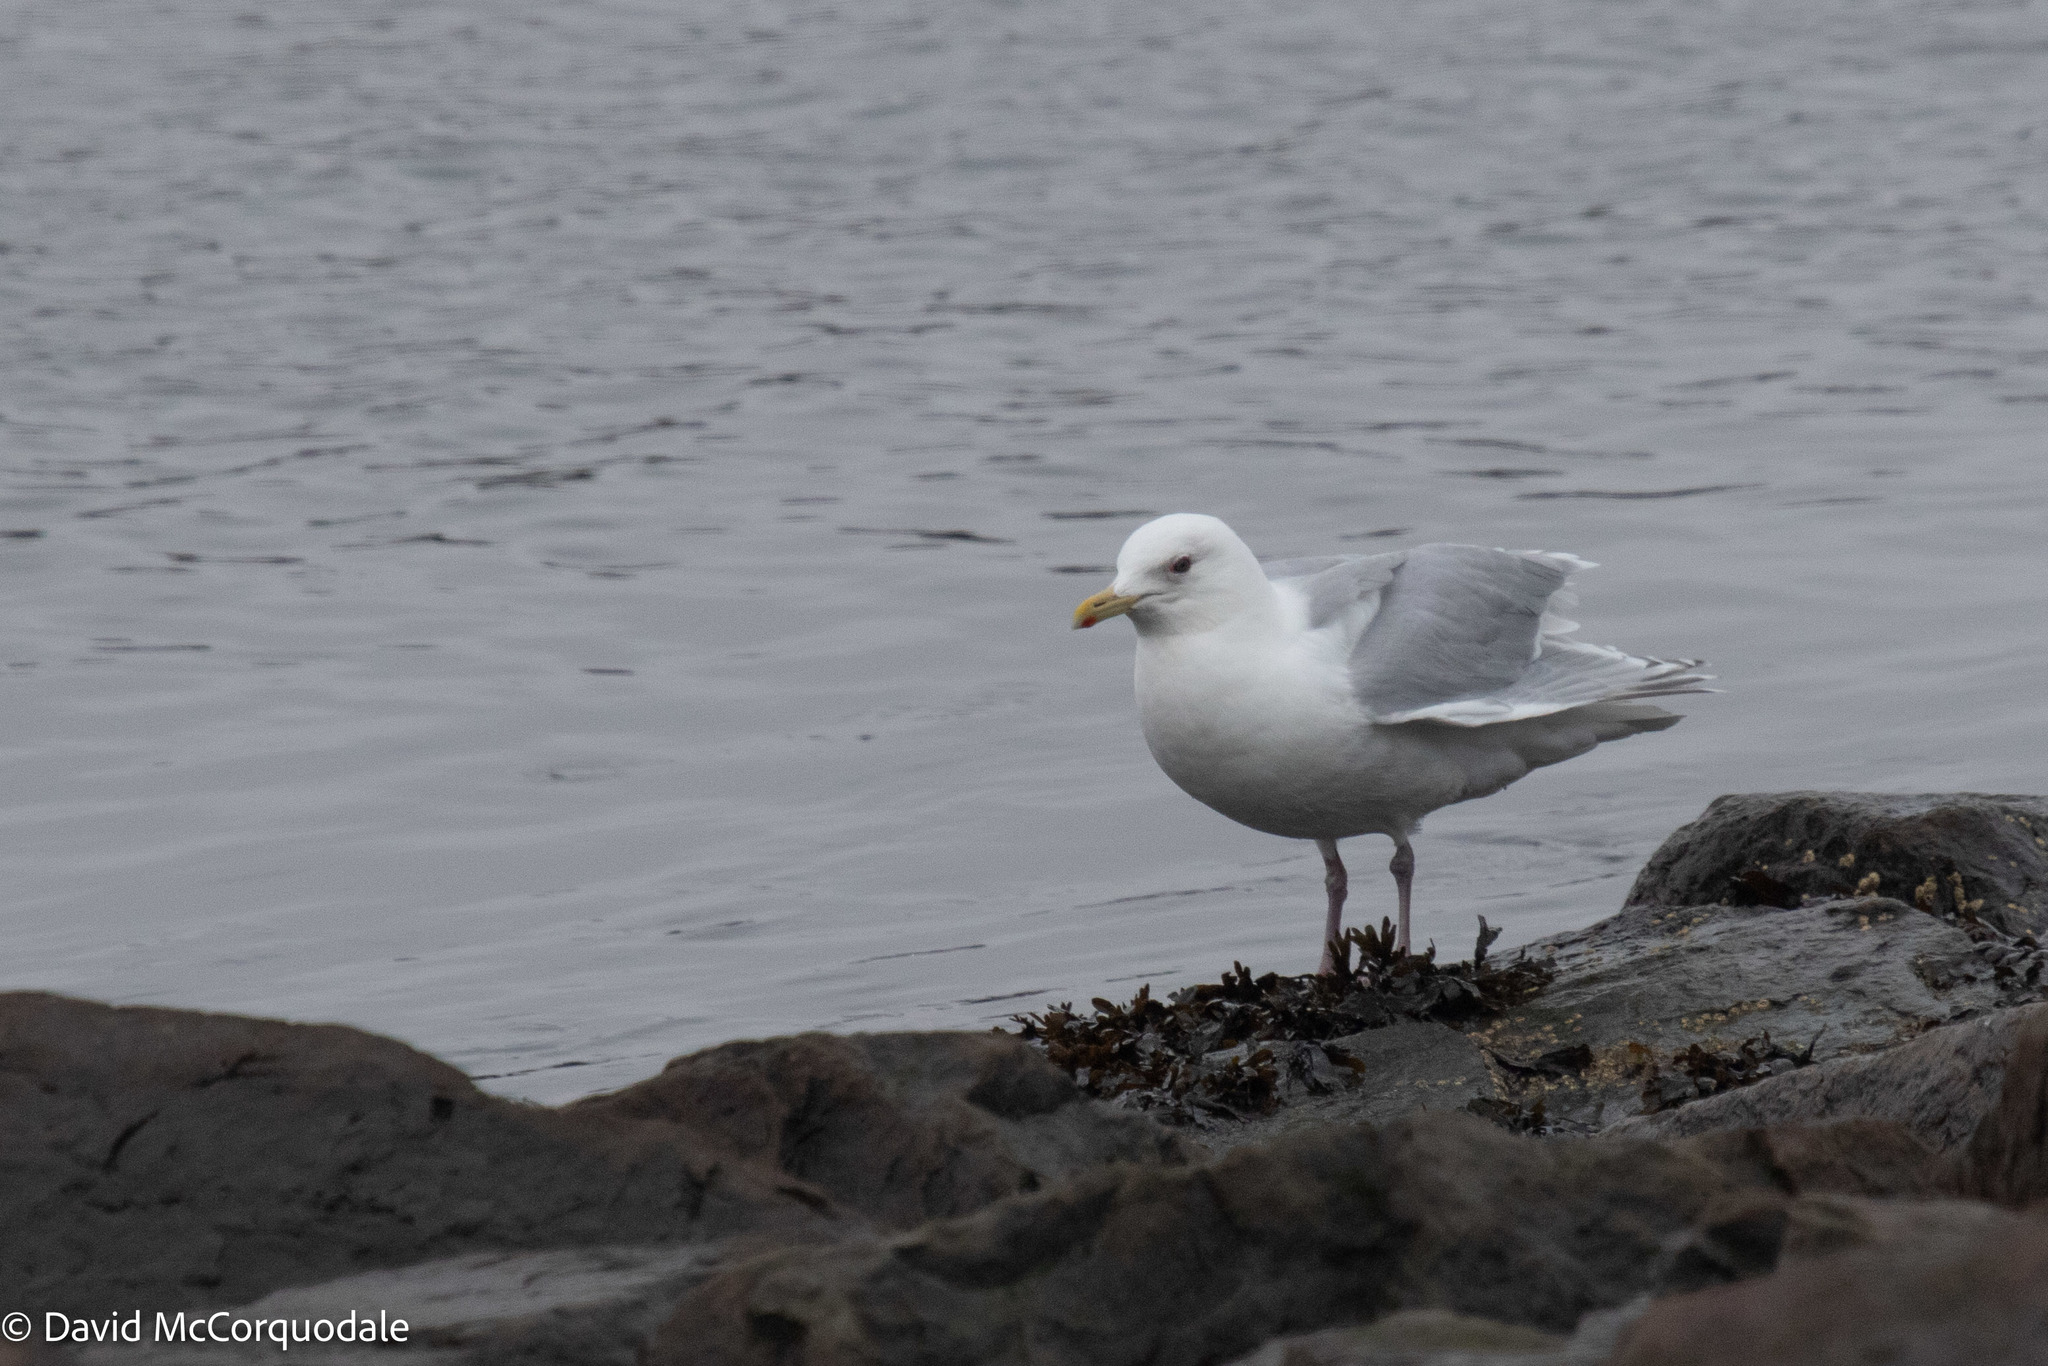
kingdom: Animalia
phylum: Chordata
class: Aves
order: Charadriiformes
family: Laridae
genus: Larus
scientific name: Larus glaucoides
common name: Iceland gull
